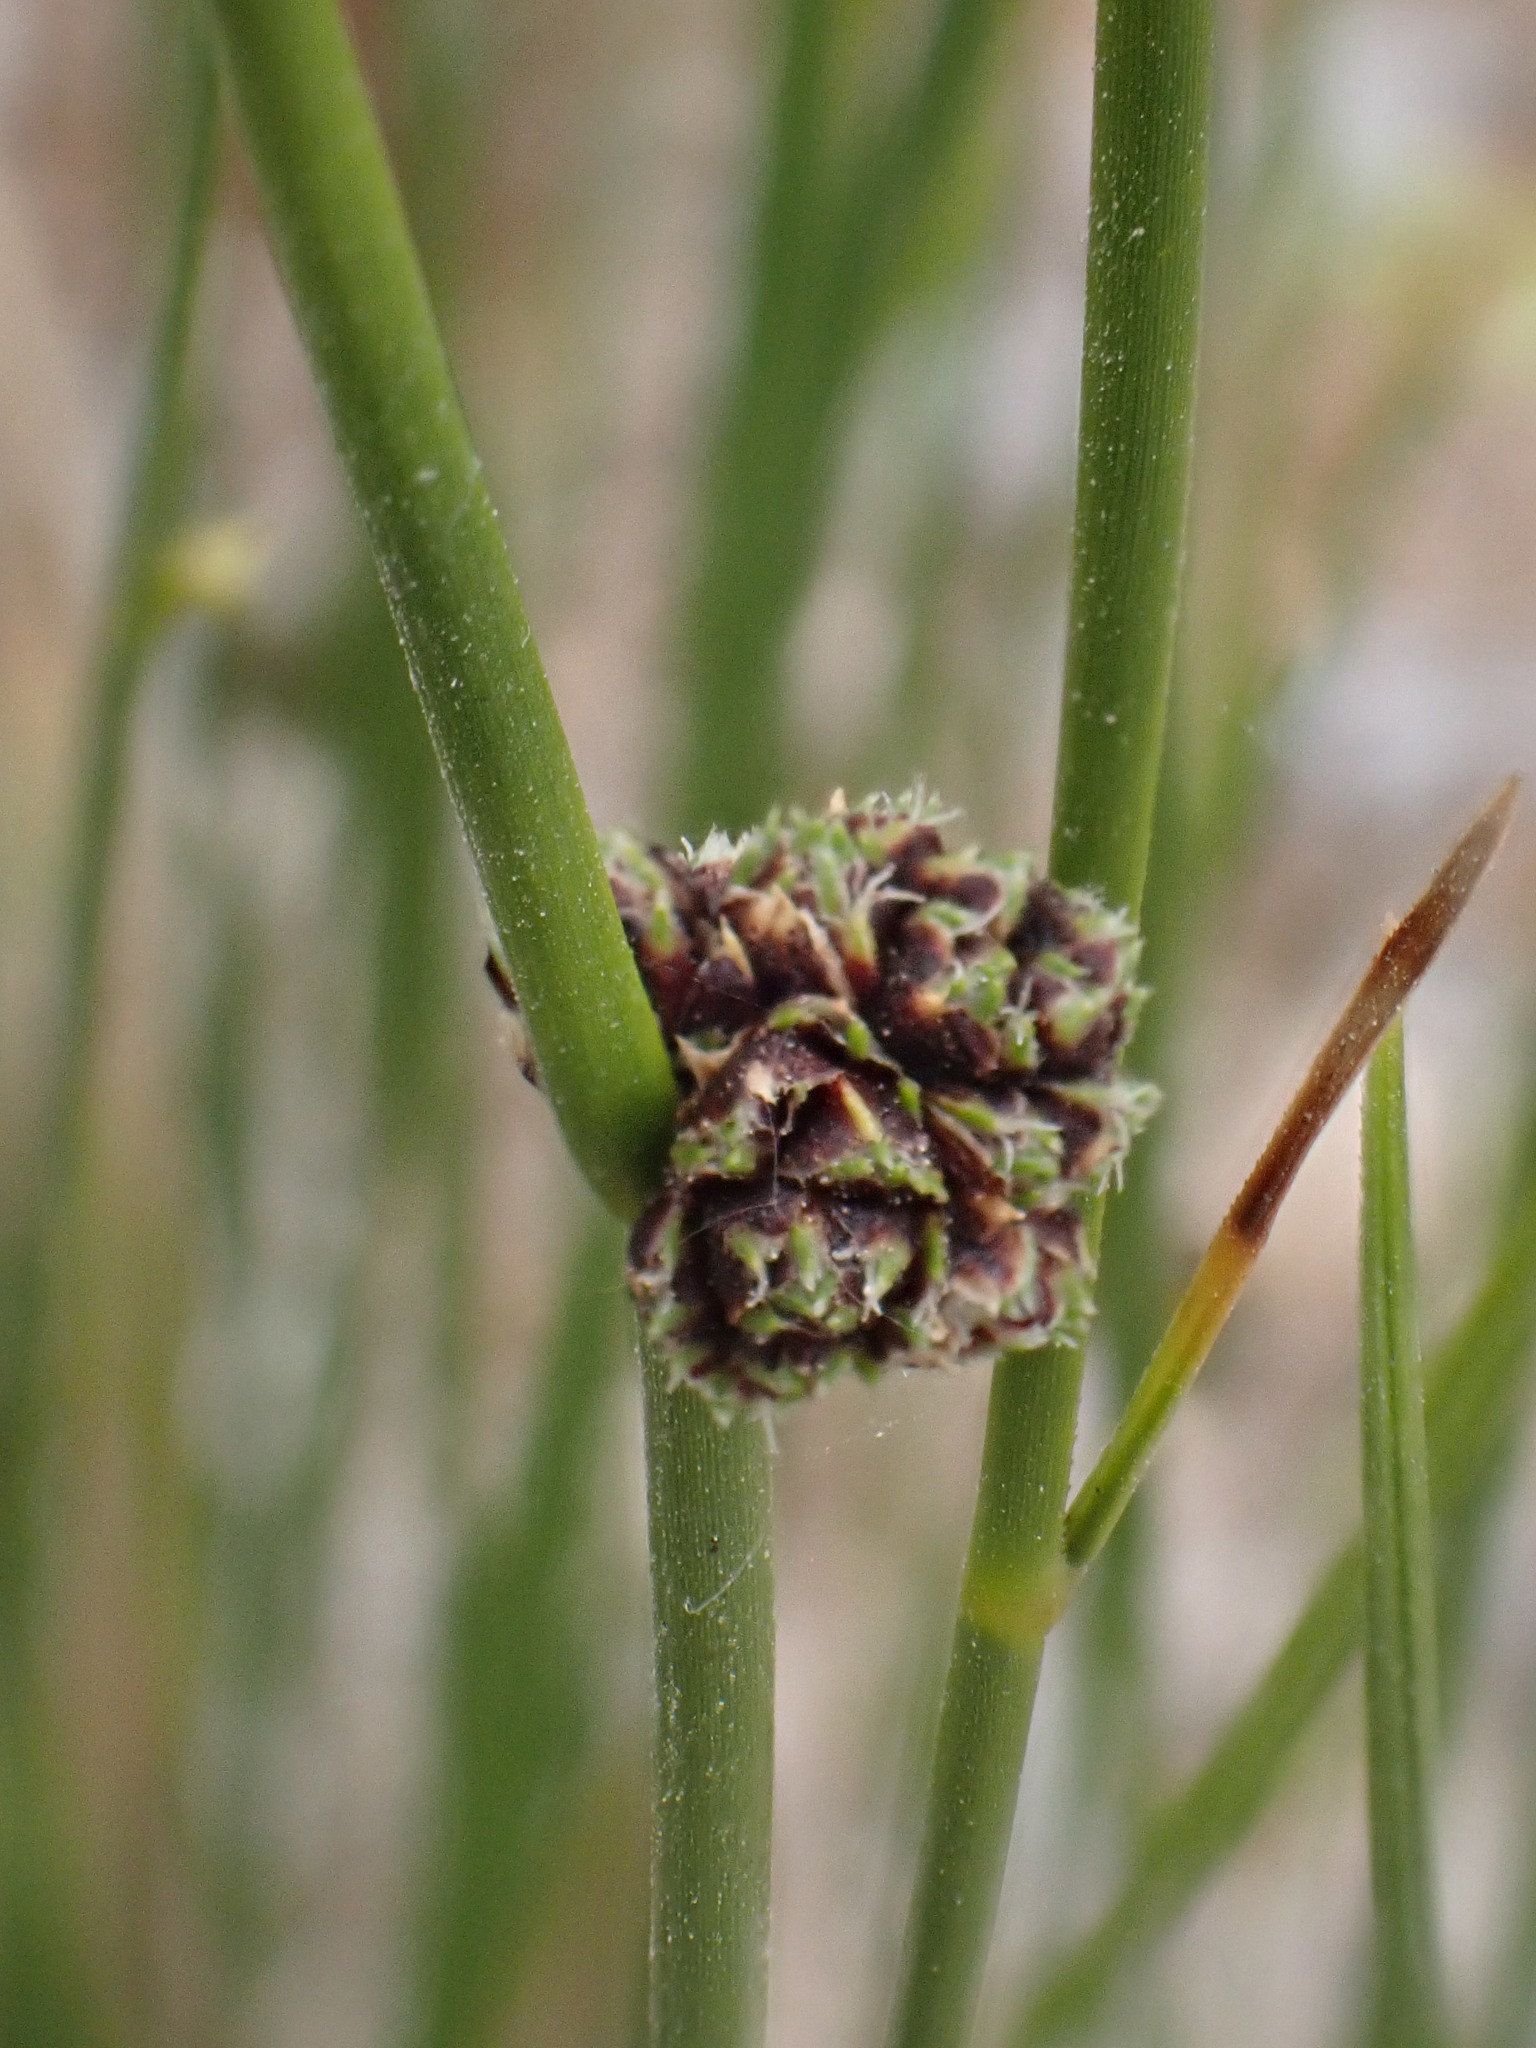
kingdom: Plantae
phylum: Tracheophyta
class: Liliopsida
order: Poales
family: Cyperaceae
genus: Scirpoides
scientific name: Scirpoides holoschoenus
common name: Round-headed club-rush
